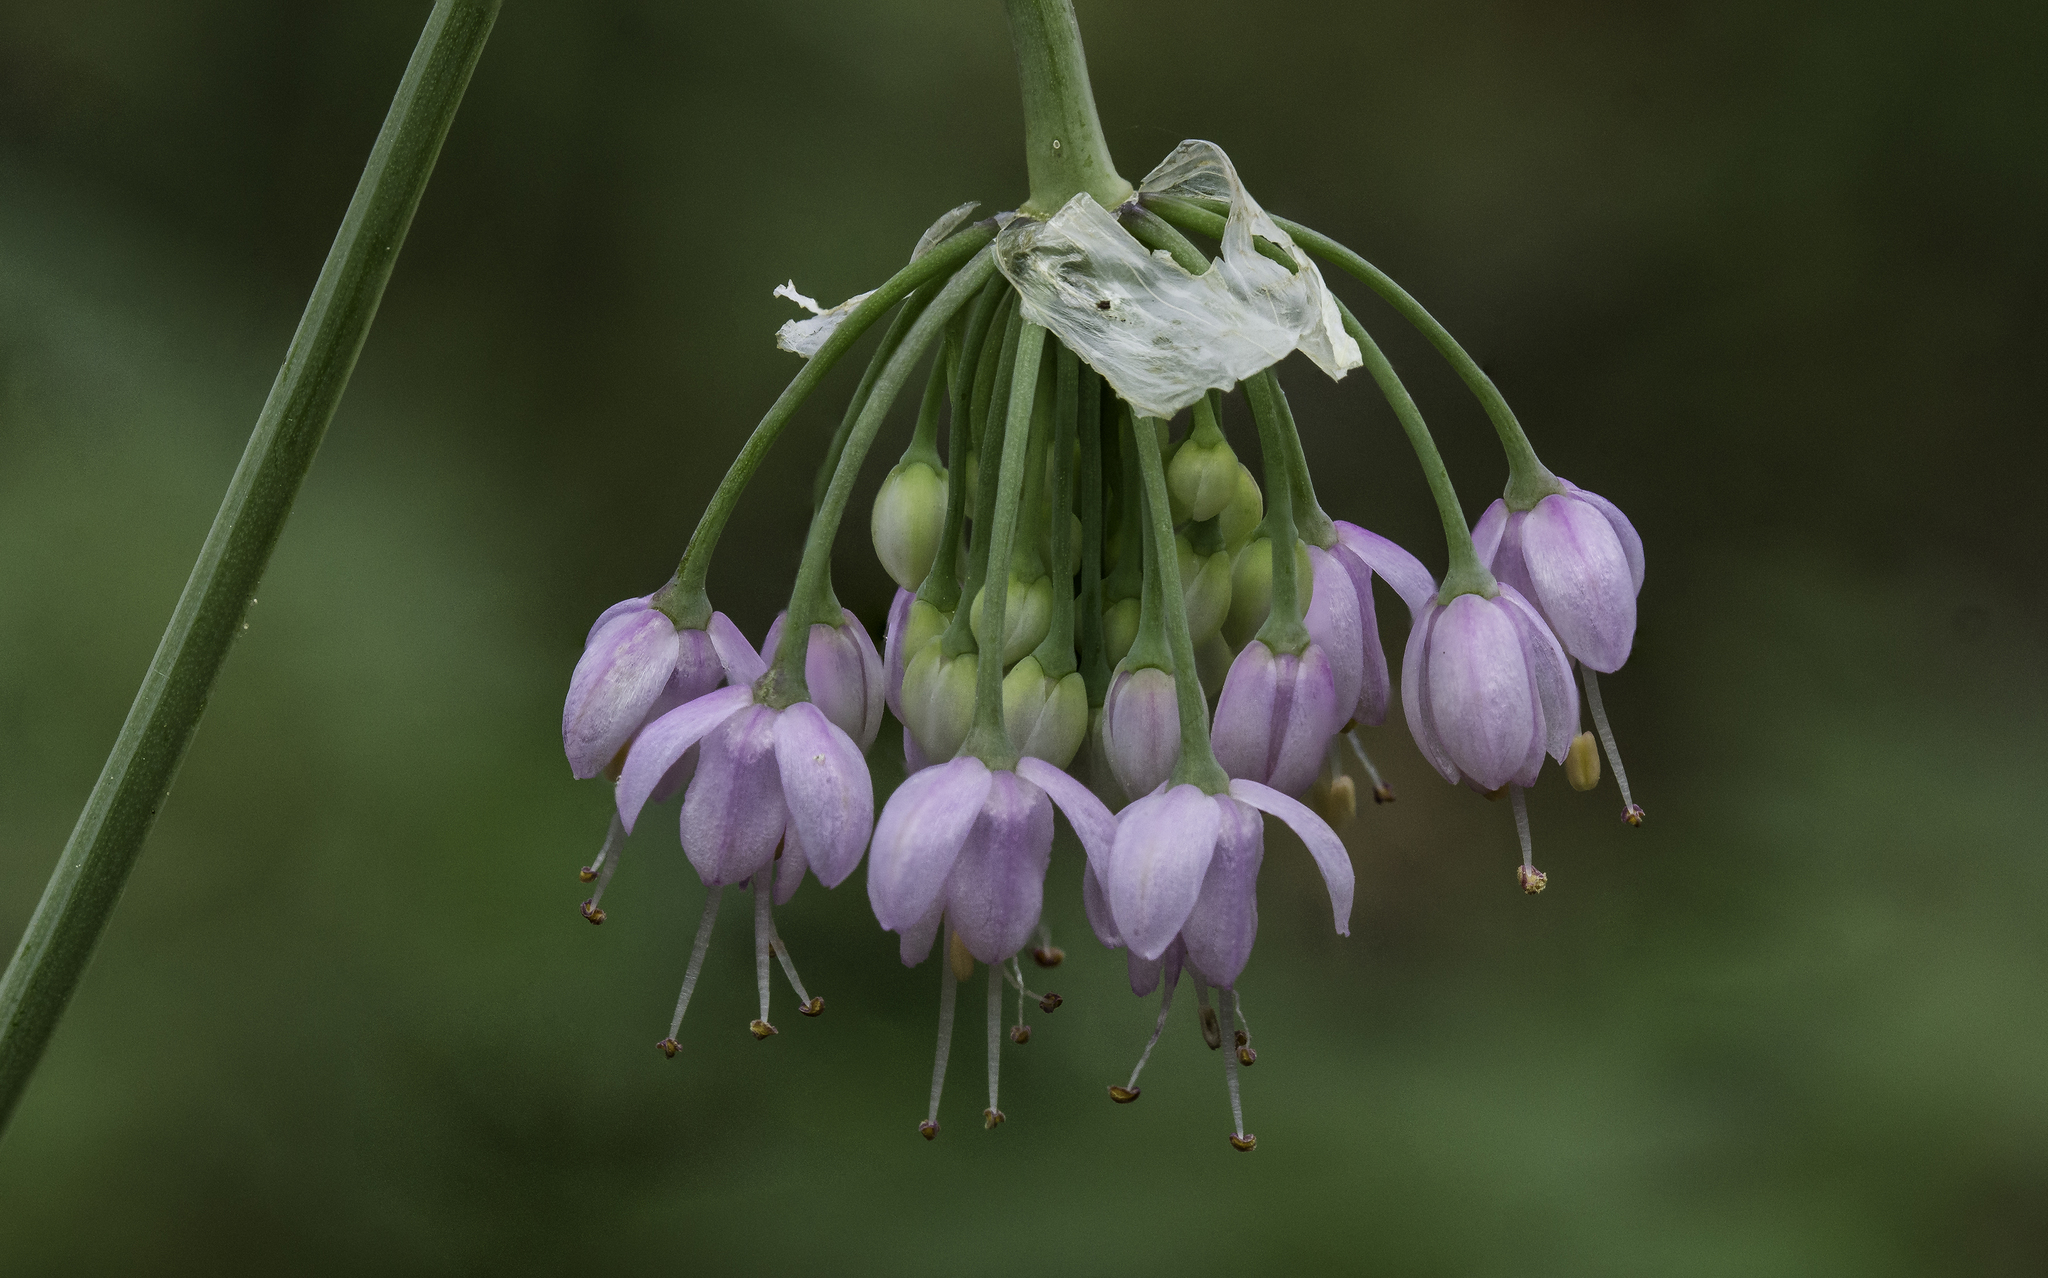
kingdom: Plantae
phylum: Tracheophyta
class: Liliopsida
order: Asparagales
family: Amaryllidaceae
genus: Allium
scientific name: Allium cernuum
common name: Nodding onion
